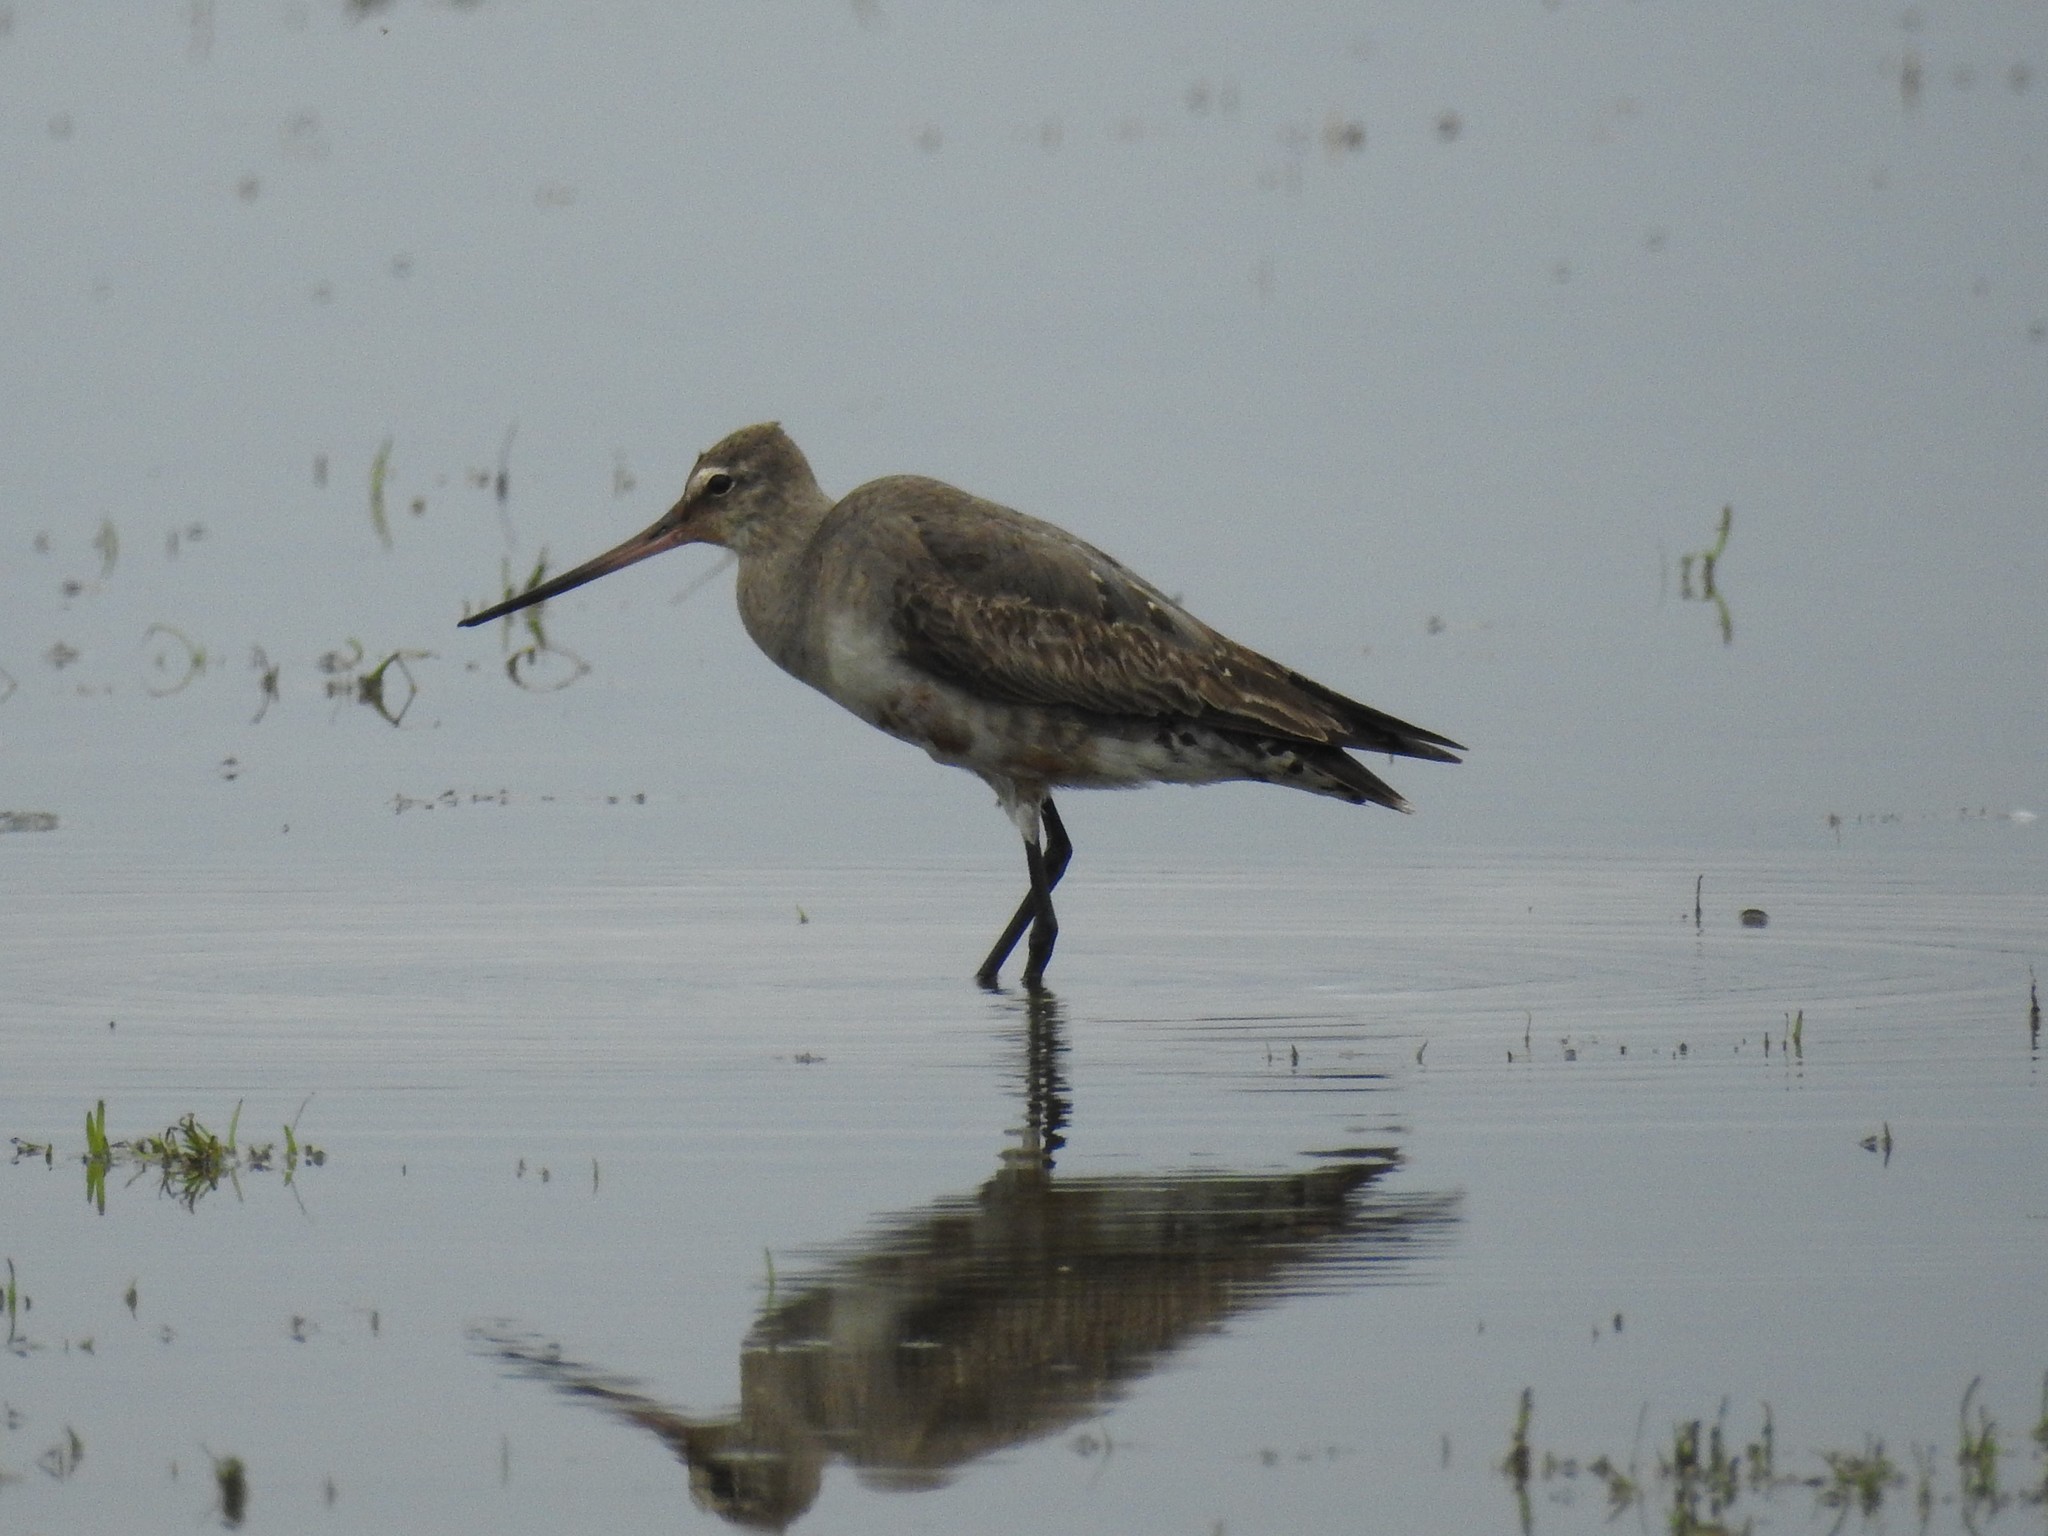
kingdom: Animalia
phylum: Chordata
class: Aves
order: Charadriiformes
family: Scolopacidae
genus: Limosa
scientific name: Limosa haemastica
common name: Hudsonian godwit
